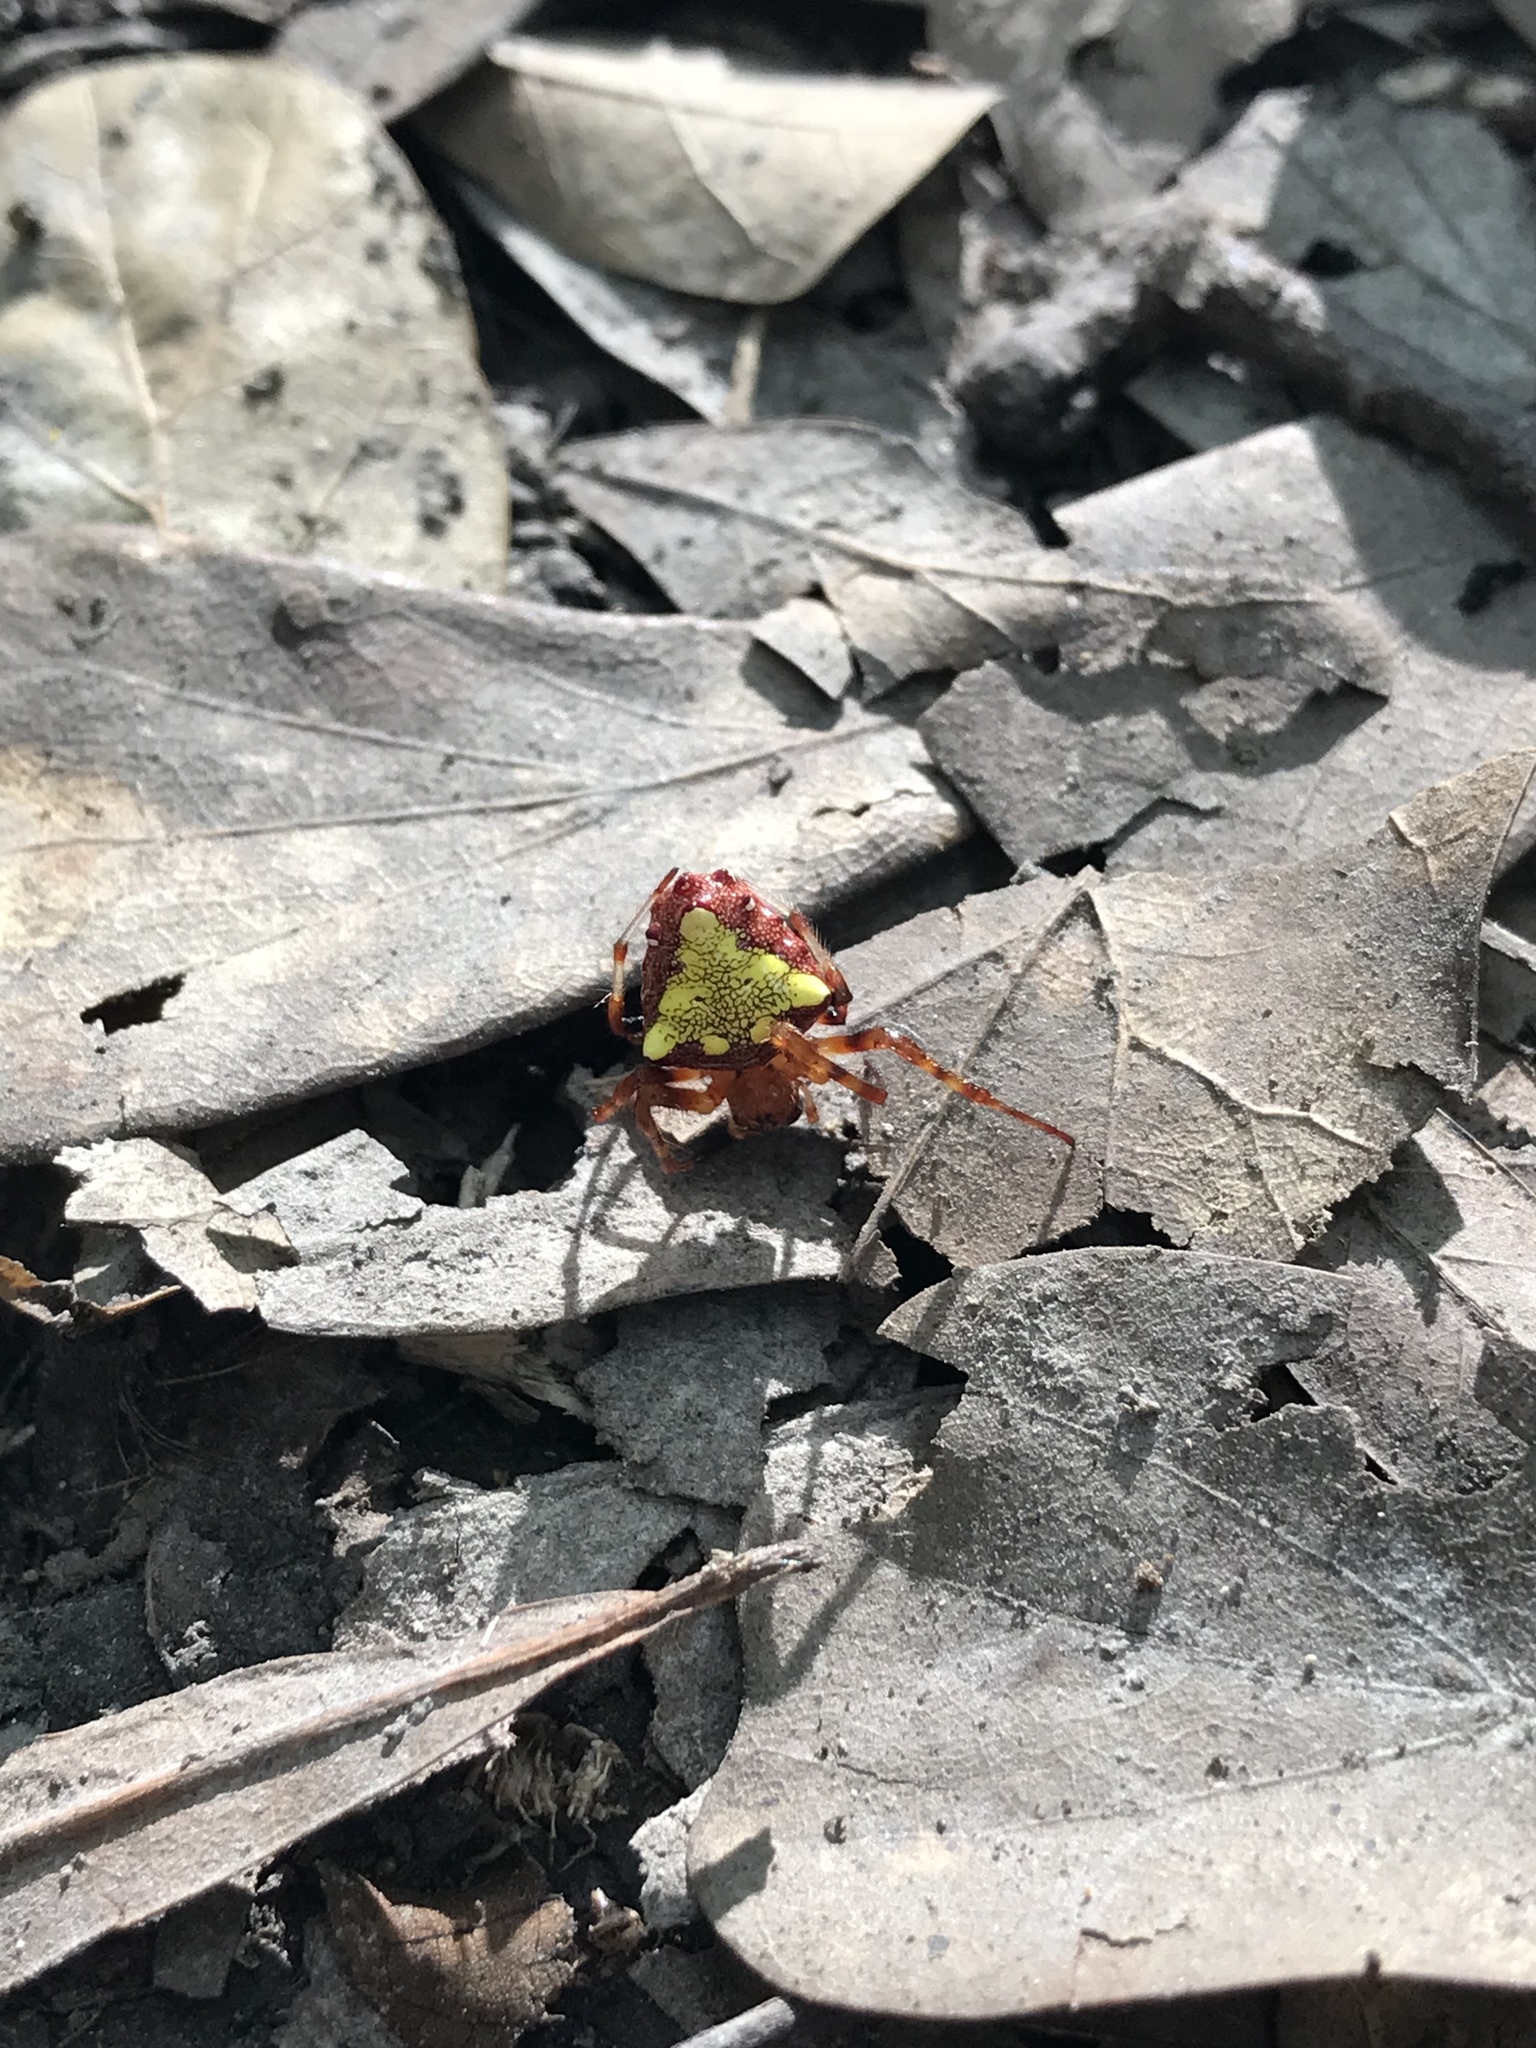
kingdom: Animalia
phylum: Arthropoda
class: Arachnida
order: Araneae
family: Araneidae
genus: Verrucosa
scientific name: Verrucosa arenata
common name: Orb weavers
